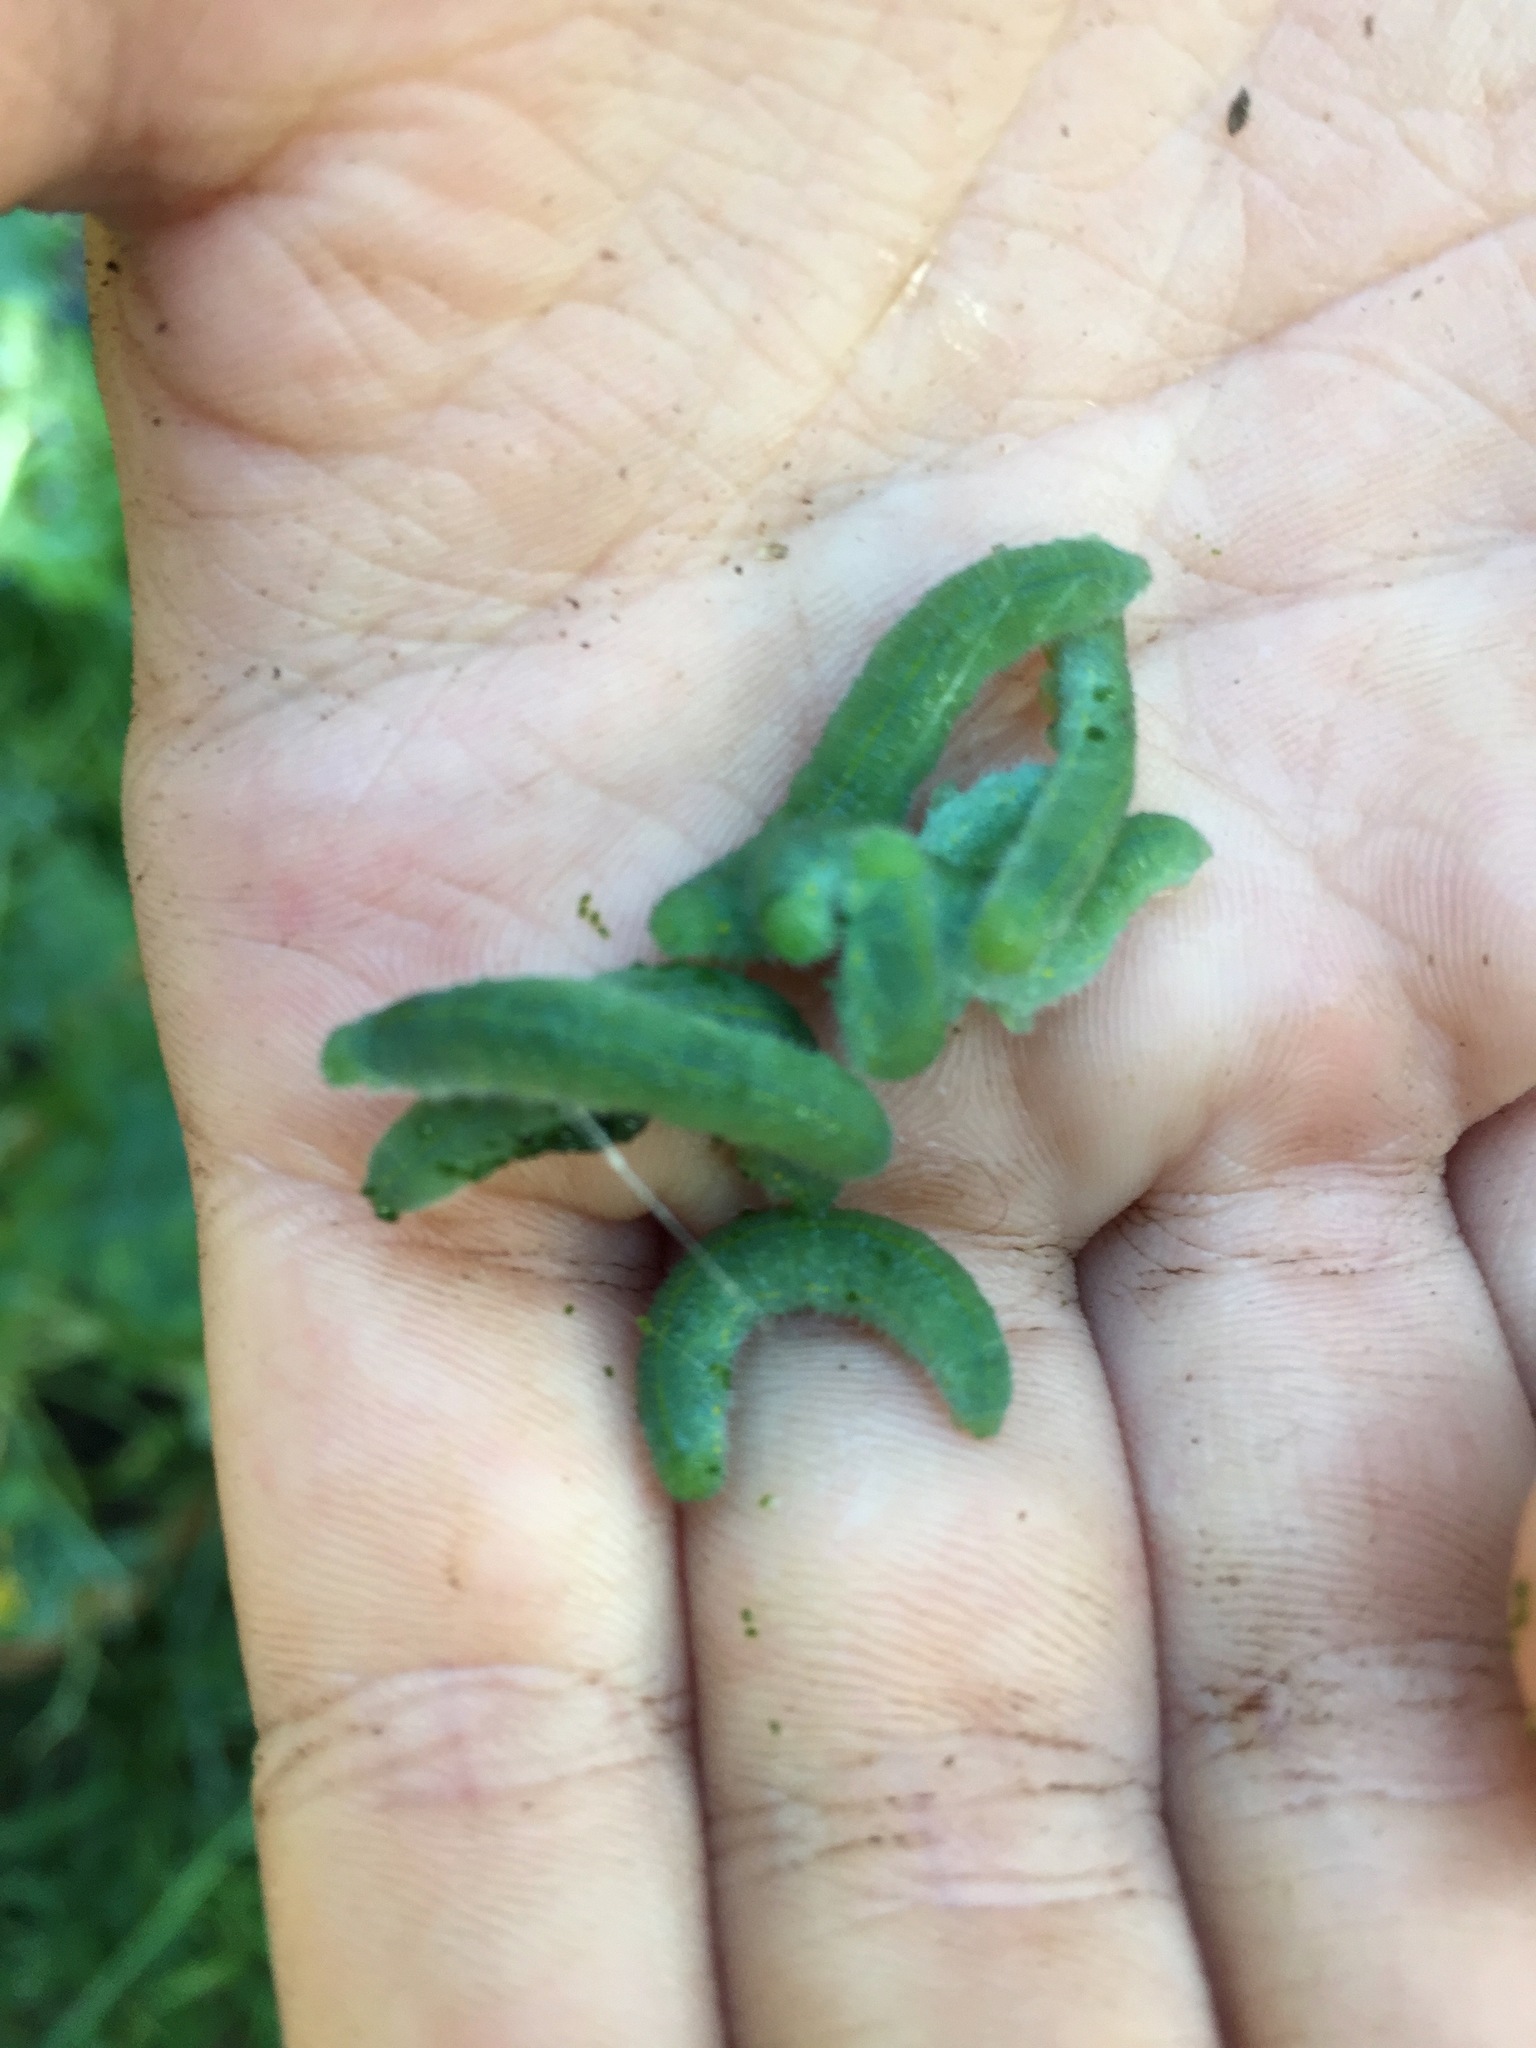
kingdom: Animalia
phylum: Arthropoda
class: Insecta
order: Lepidoptera
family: Pieridae
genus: Pieris
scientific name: Pieris rapae
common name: Small white
